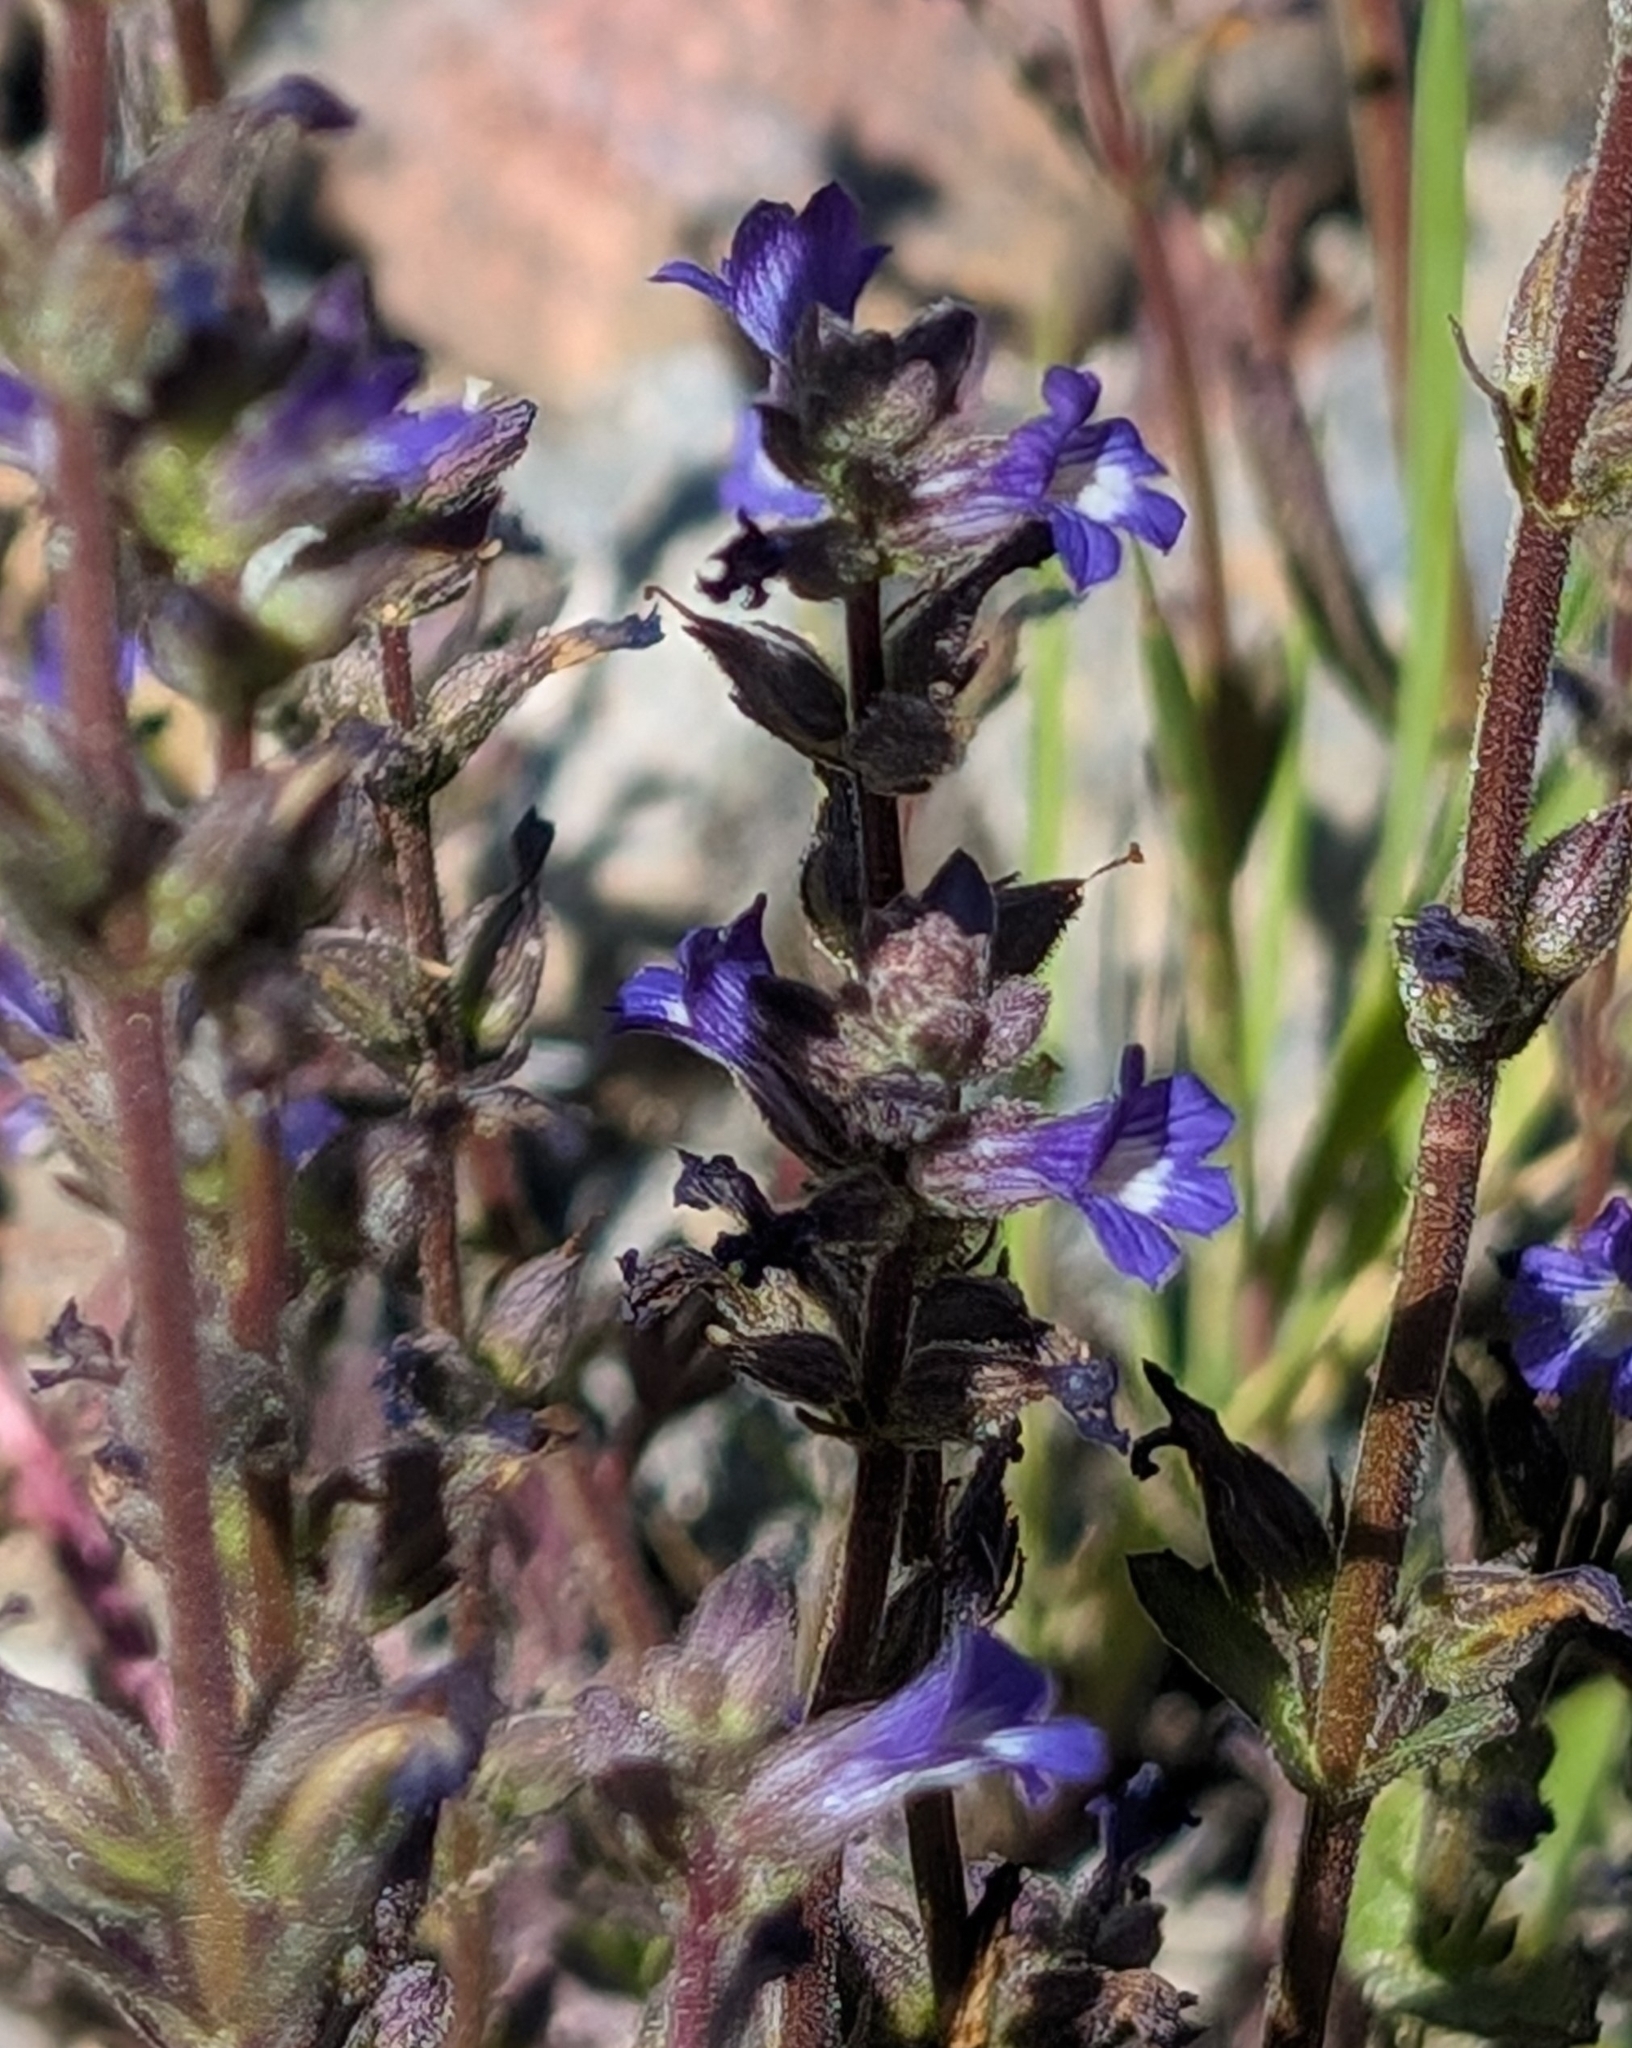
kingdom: Plantae
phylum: Tracheophyta
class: Magnoliopsida
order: Lamiales
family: Plantaginaceae
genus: Stemodia
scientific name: Stemodia durantifolia
